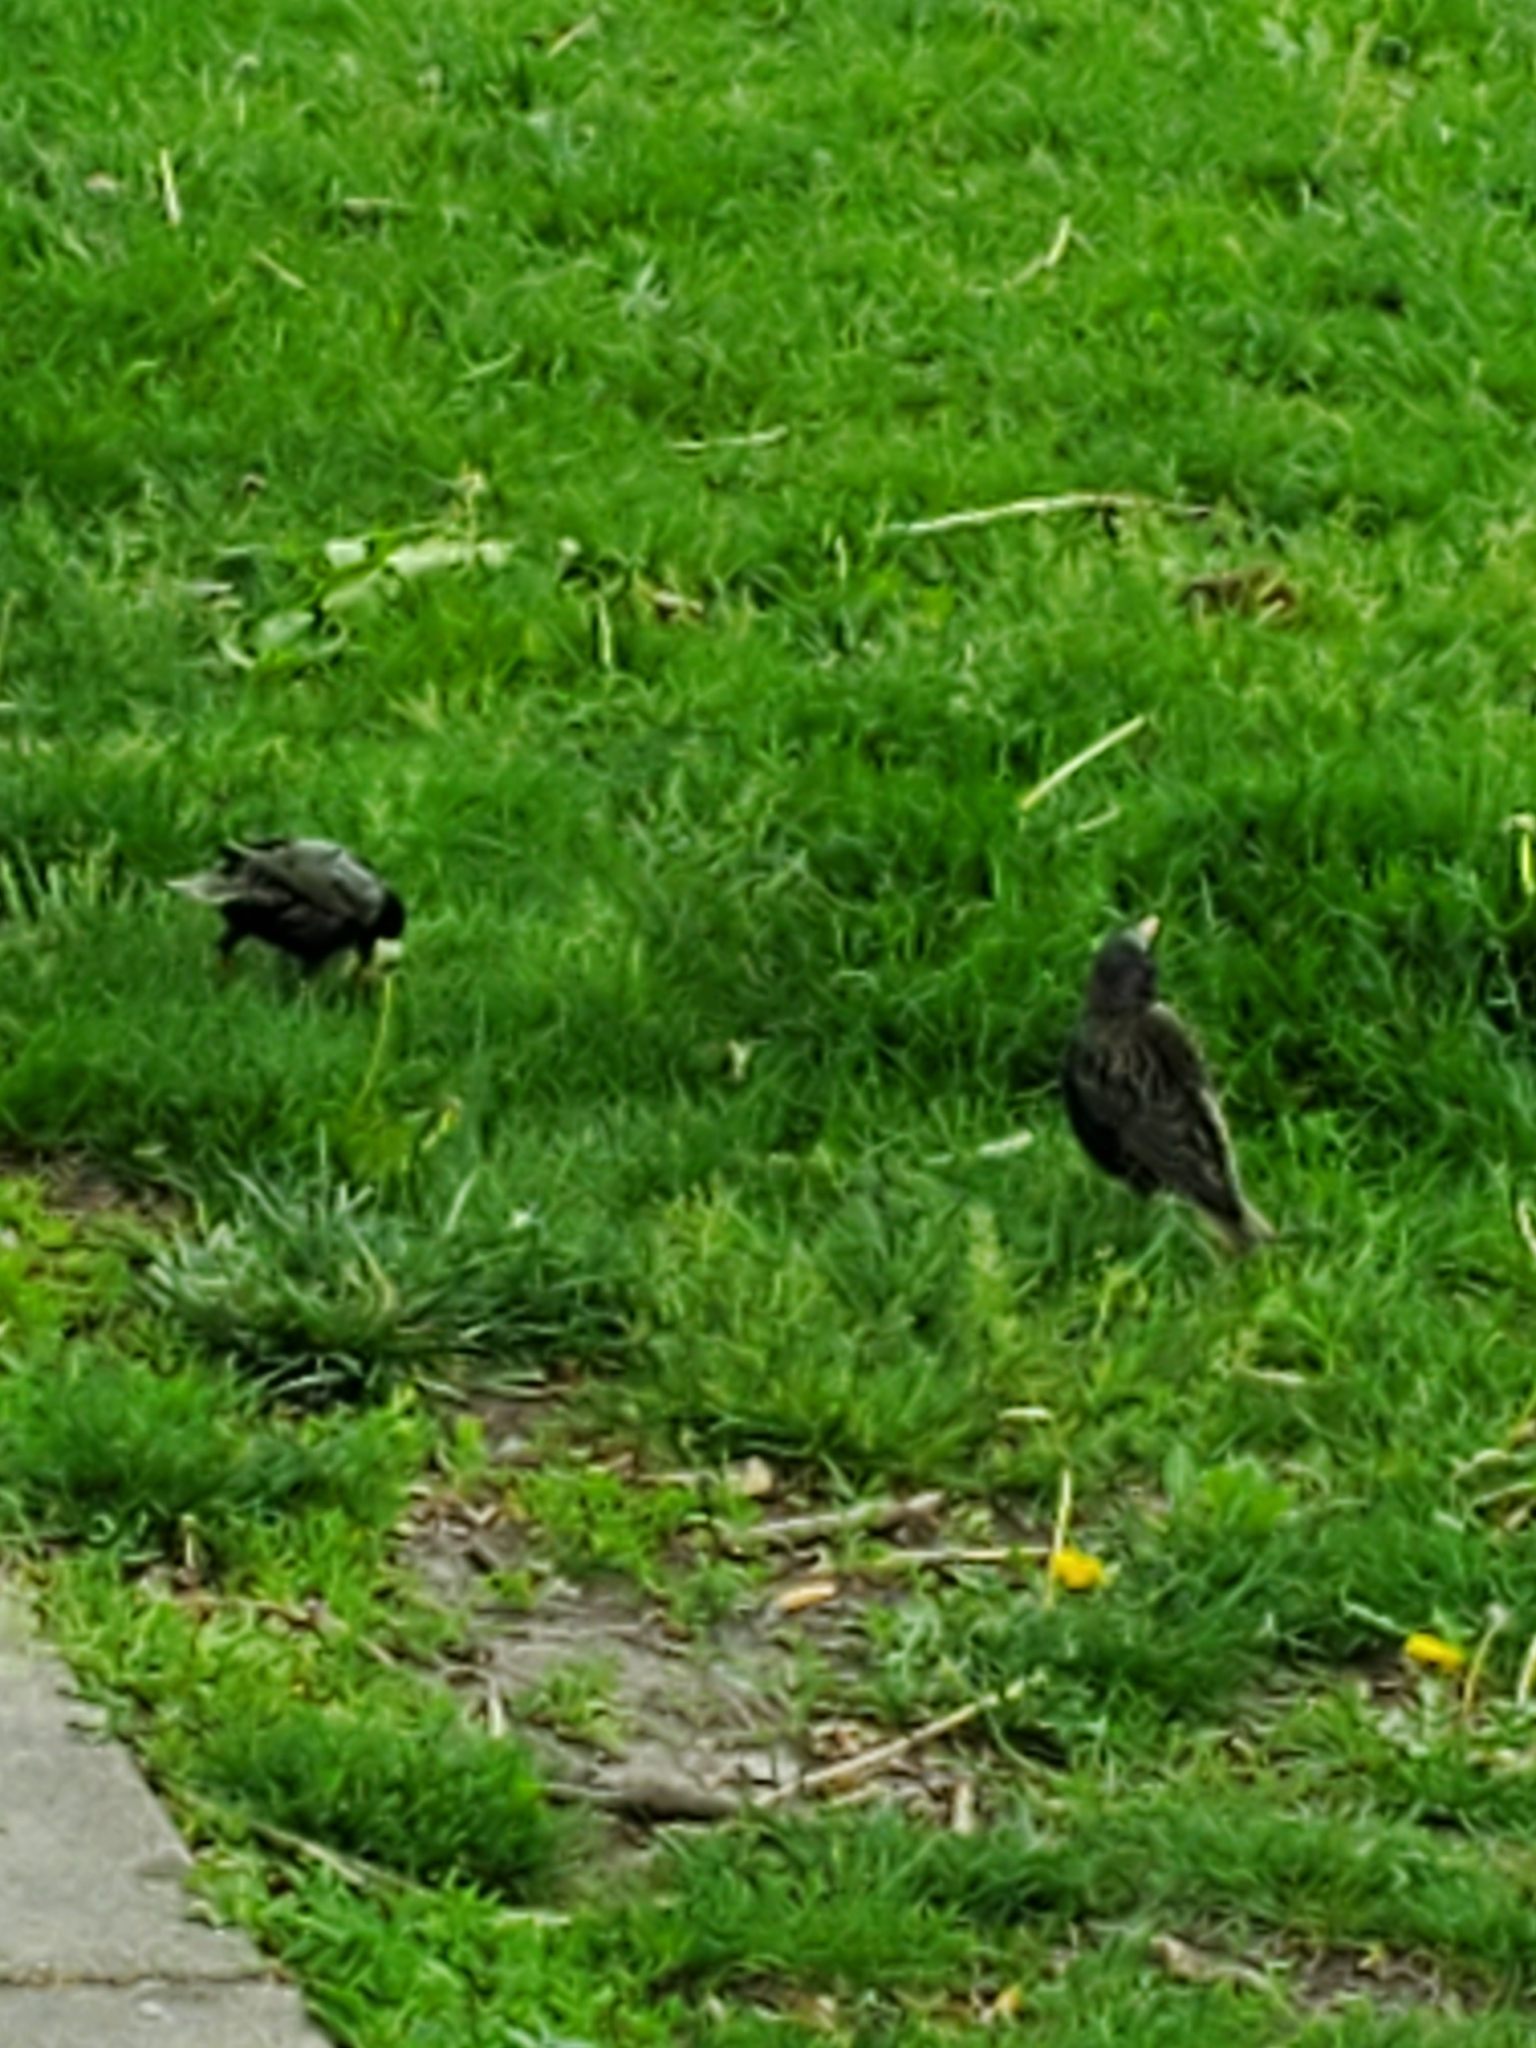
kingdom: Animalia
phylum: Chordata
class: Aves
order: Passeriformes
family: Sturnidae
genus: Sturnus
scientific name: Sturnus vulgaris
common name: Common starling
